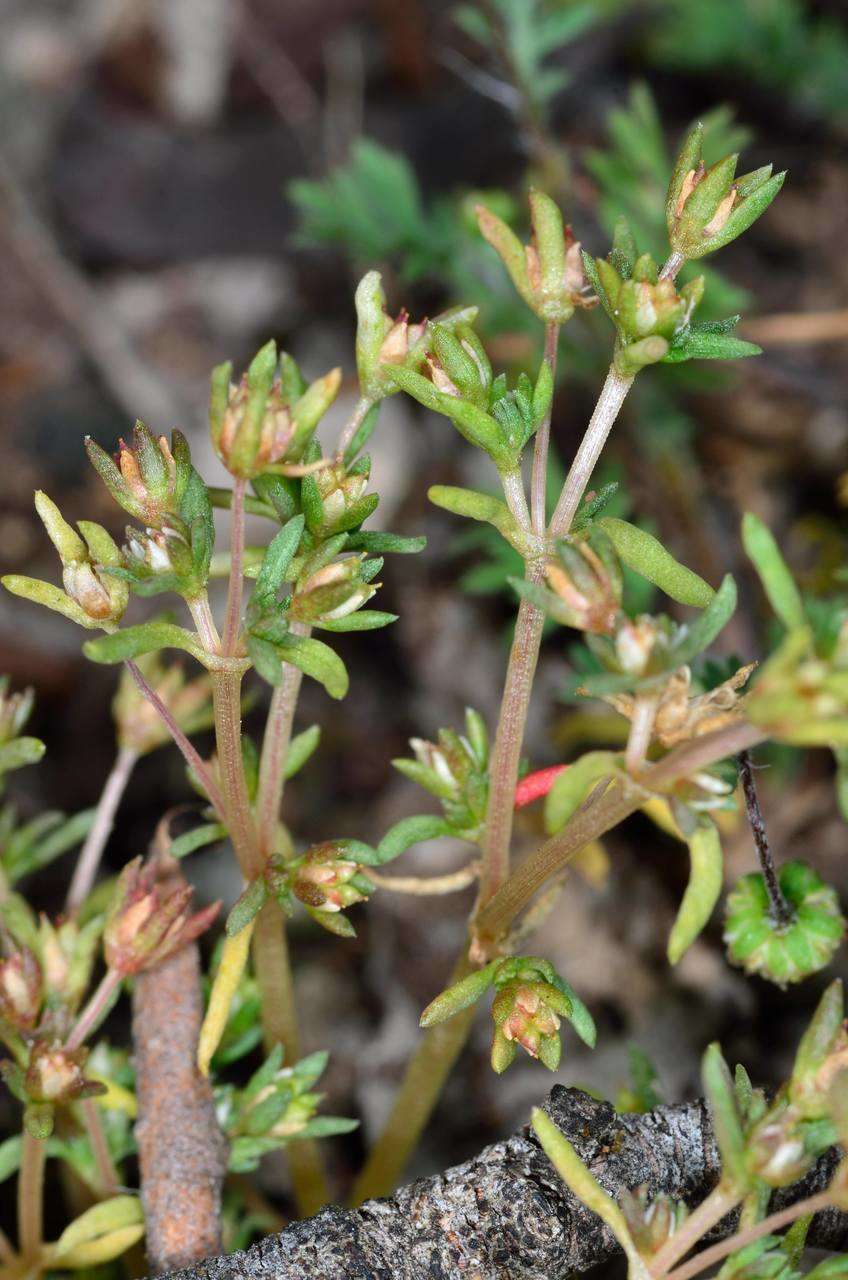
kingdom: Plantae
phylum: Tracheophyta
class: Magnoliopsida
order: Saxifragales
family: Crassulaceae
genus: Crassula
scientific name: Crassula decumbens
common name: Scilly pigmyweed
